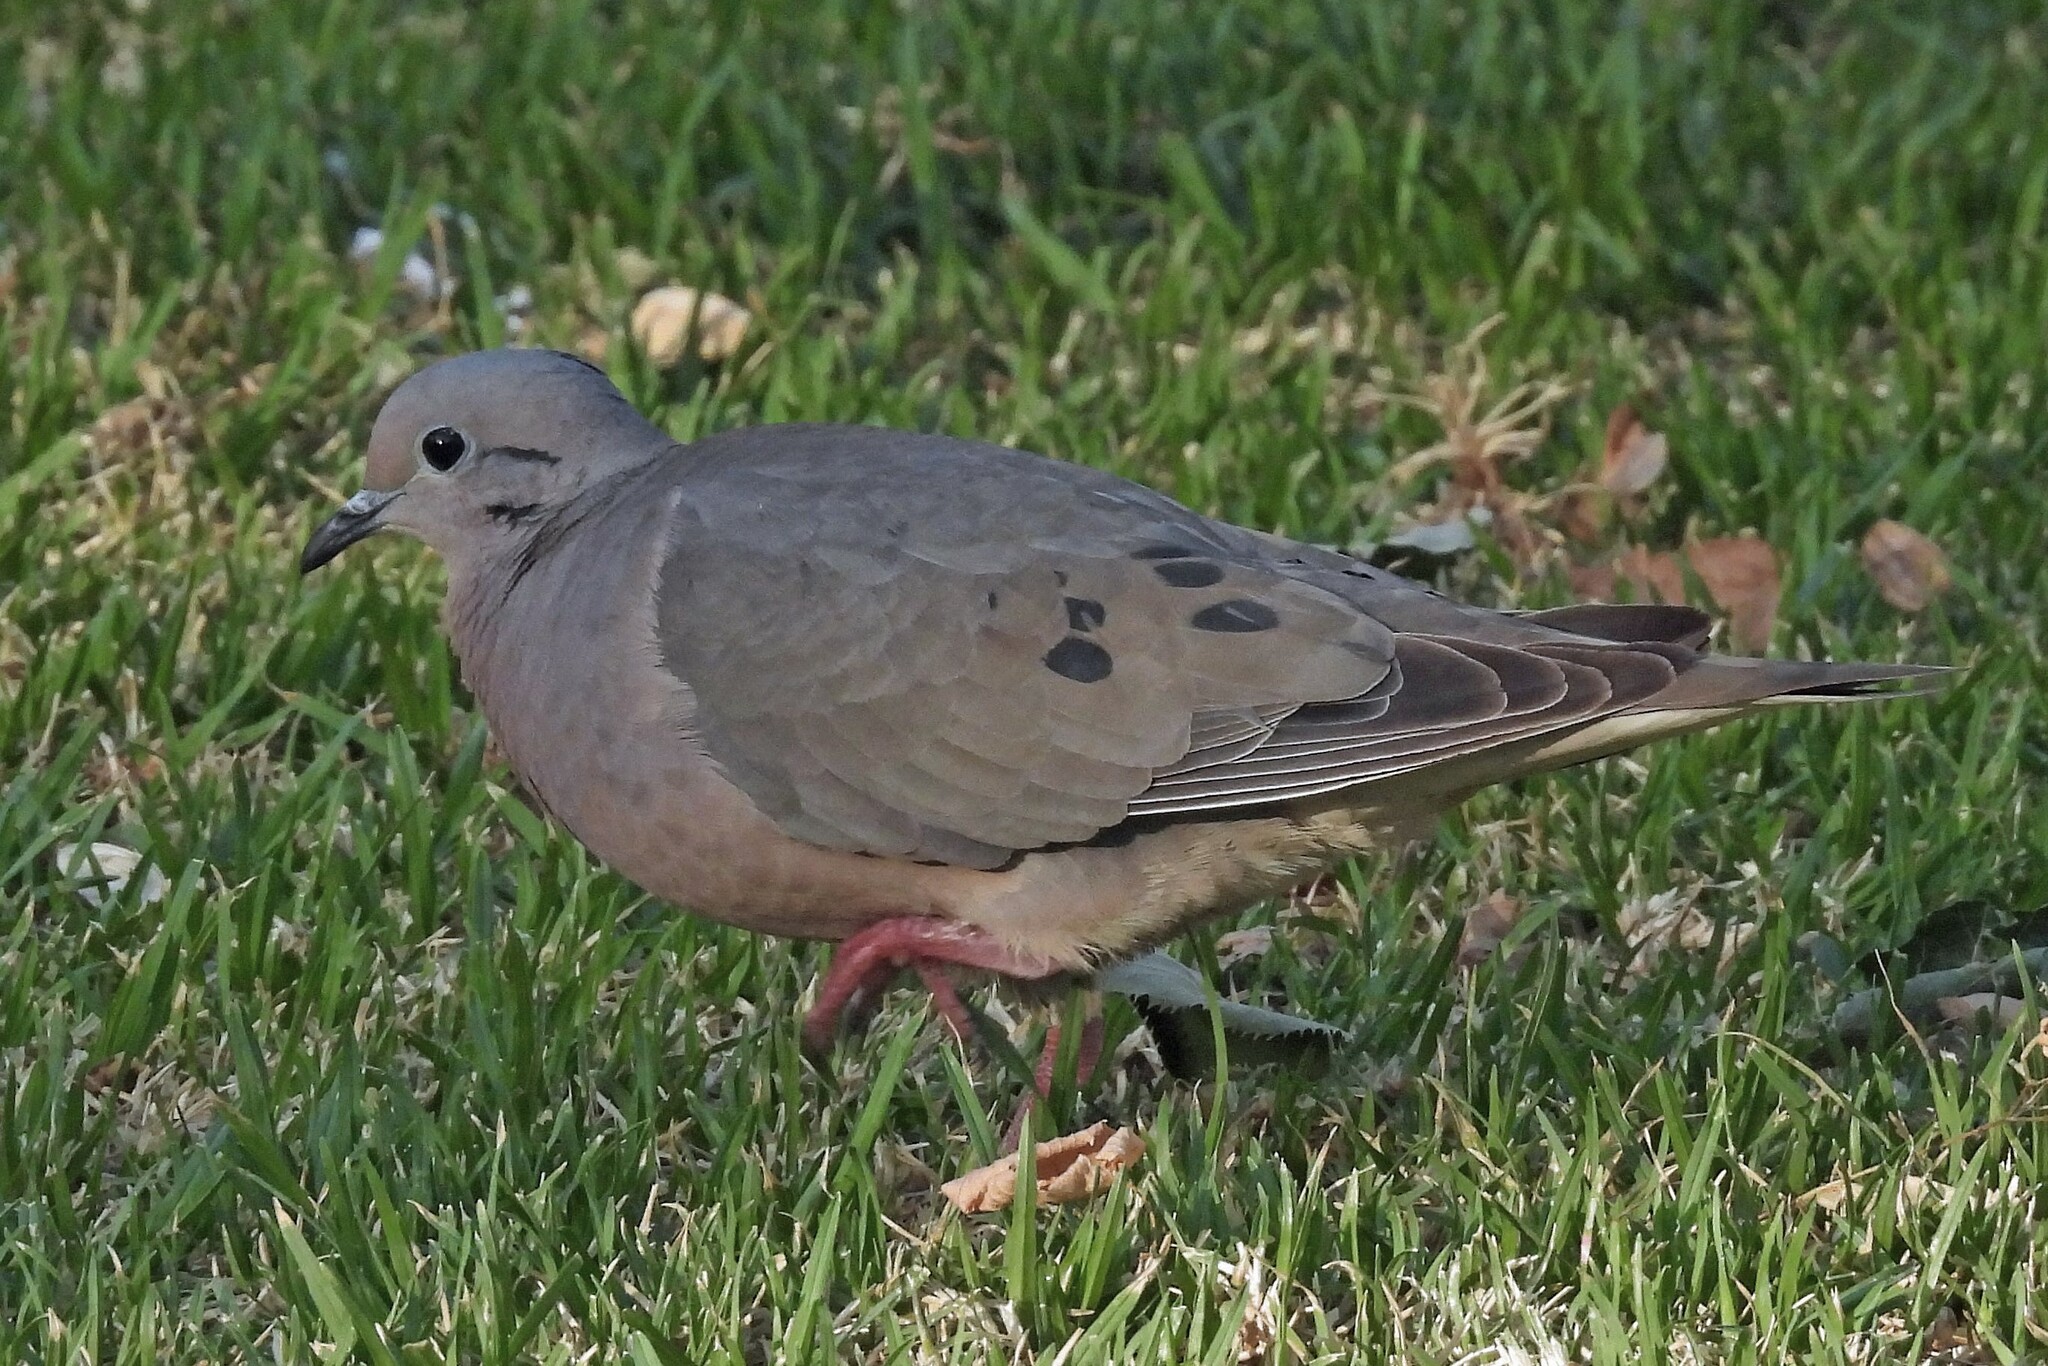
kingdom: Animalia
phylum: Chordata
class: Aves
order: Columbiformes
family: Columbidae
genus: Zenaida
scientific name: Zenaida auriculata
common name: Eared dove
